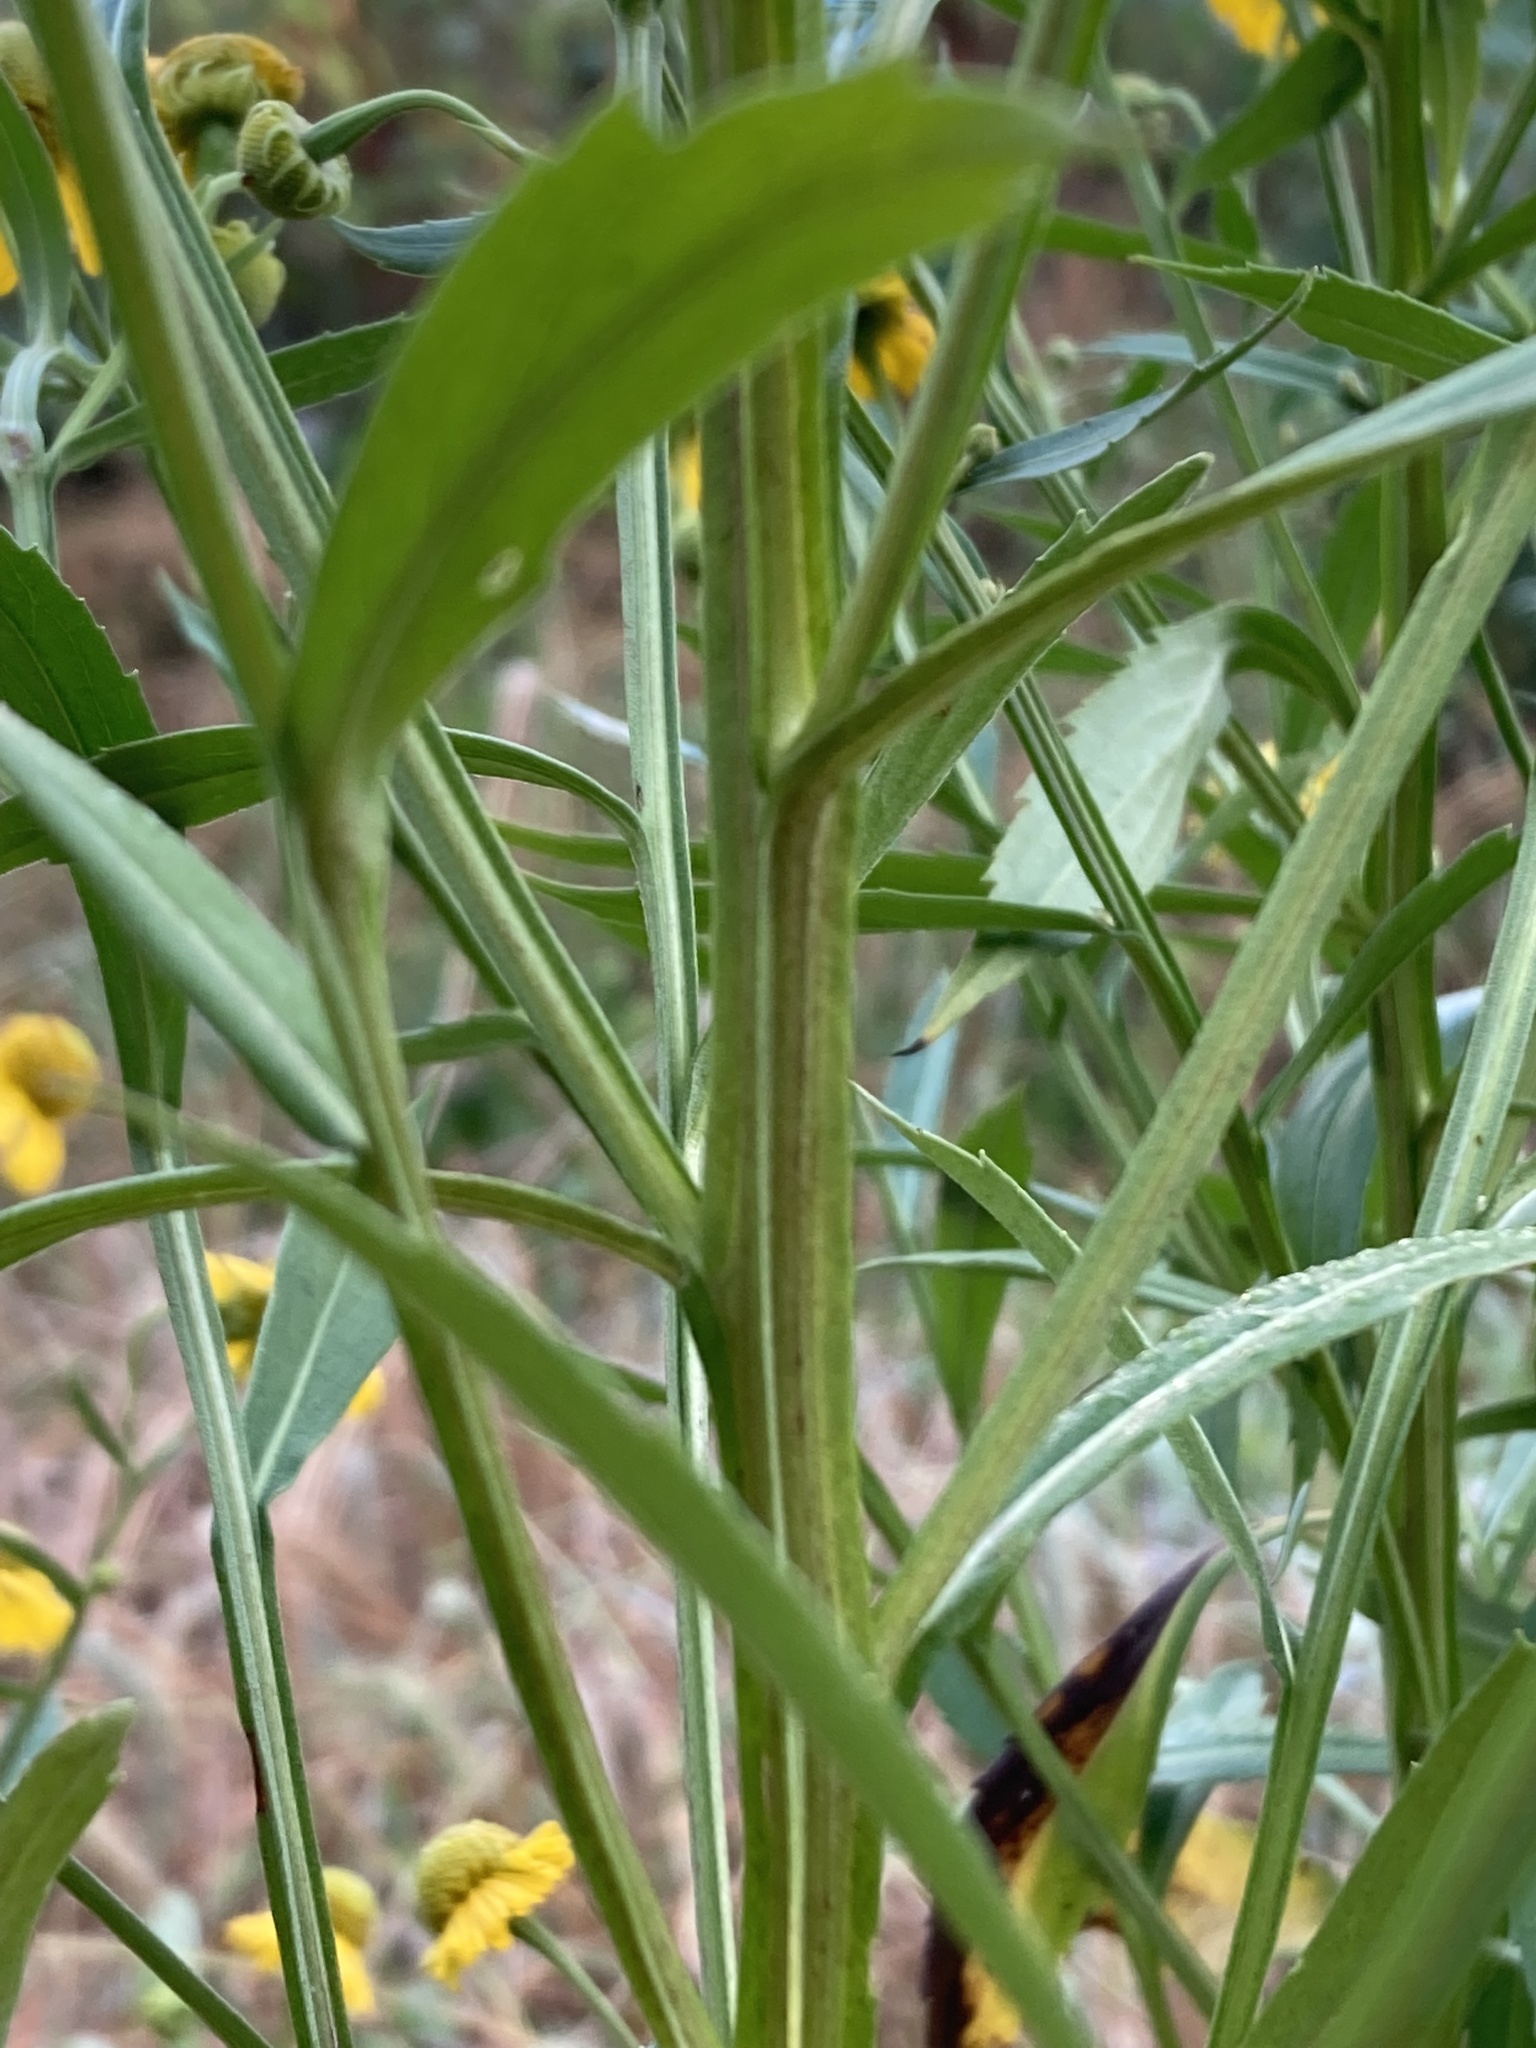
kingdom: Plantae
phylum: Tracheophyta
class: Magnoliopsida
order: Asterales
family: Asteraceae
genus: Helenium
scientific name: Helenium autumnale
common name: Sneezeweed
